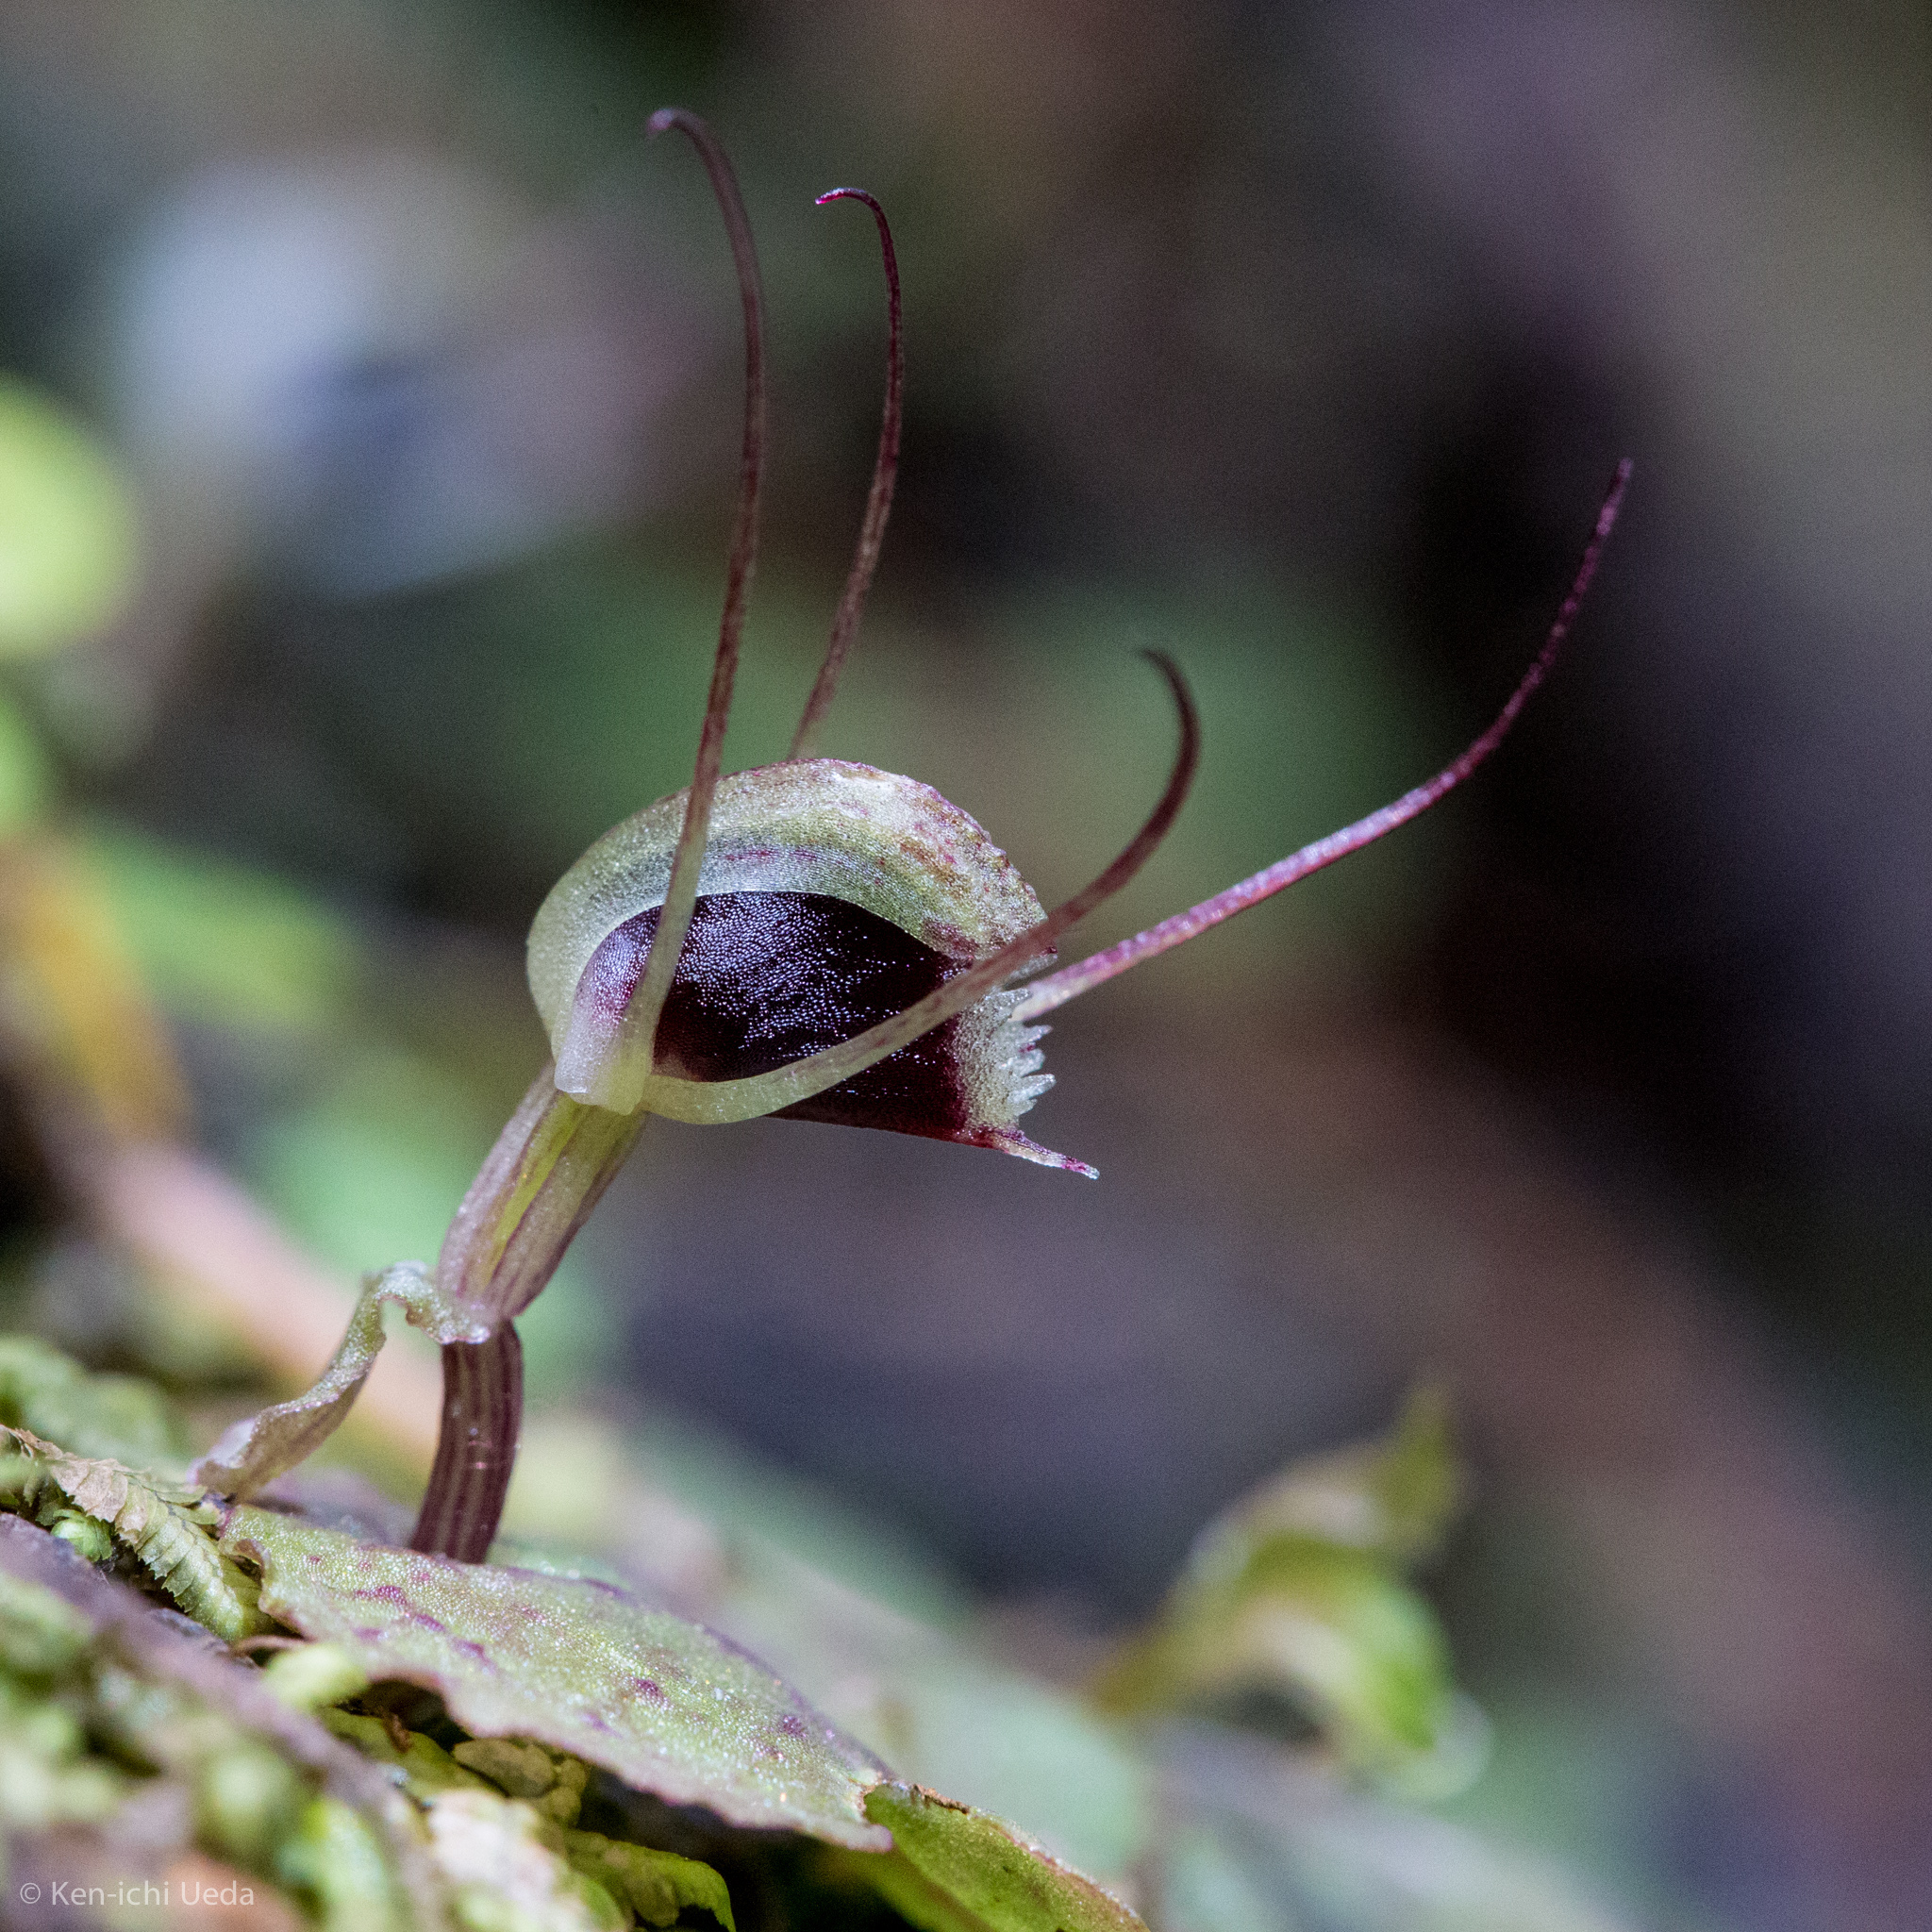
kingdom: Plantae
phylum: Tracheophyta
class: Liliopsida
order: Asparagales
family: Orchidaceae
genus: Corybas
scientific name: Corybas oblongus
